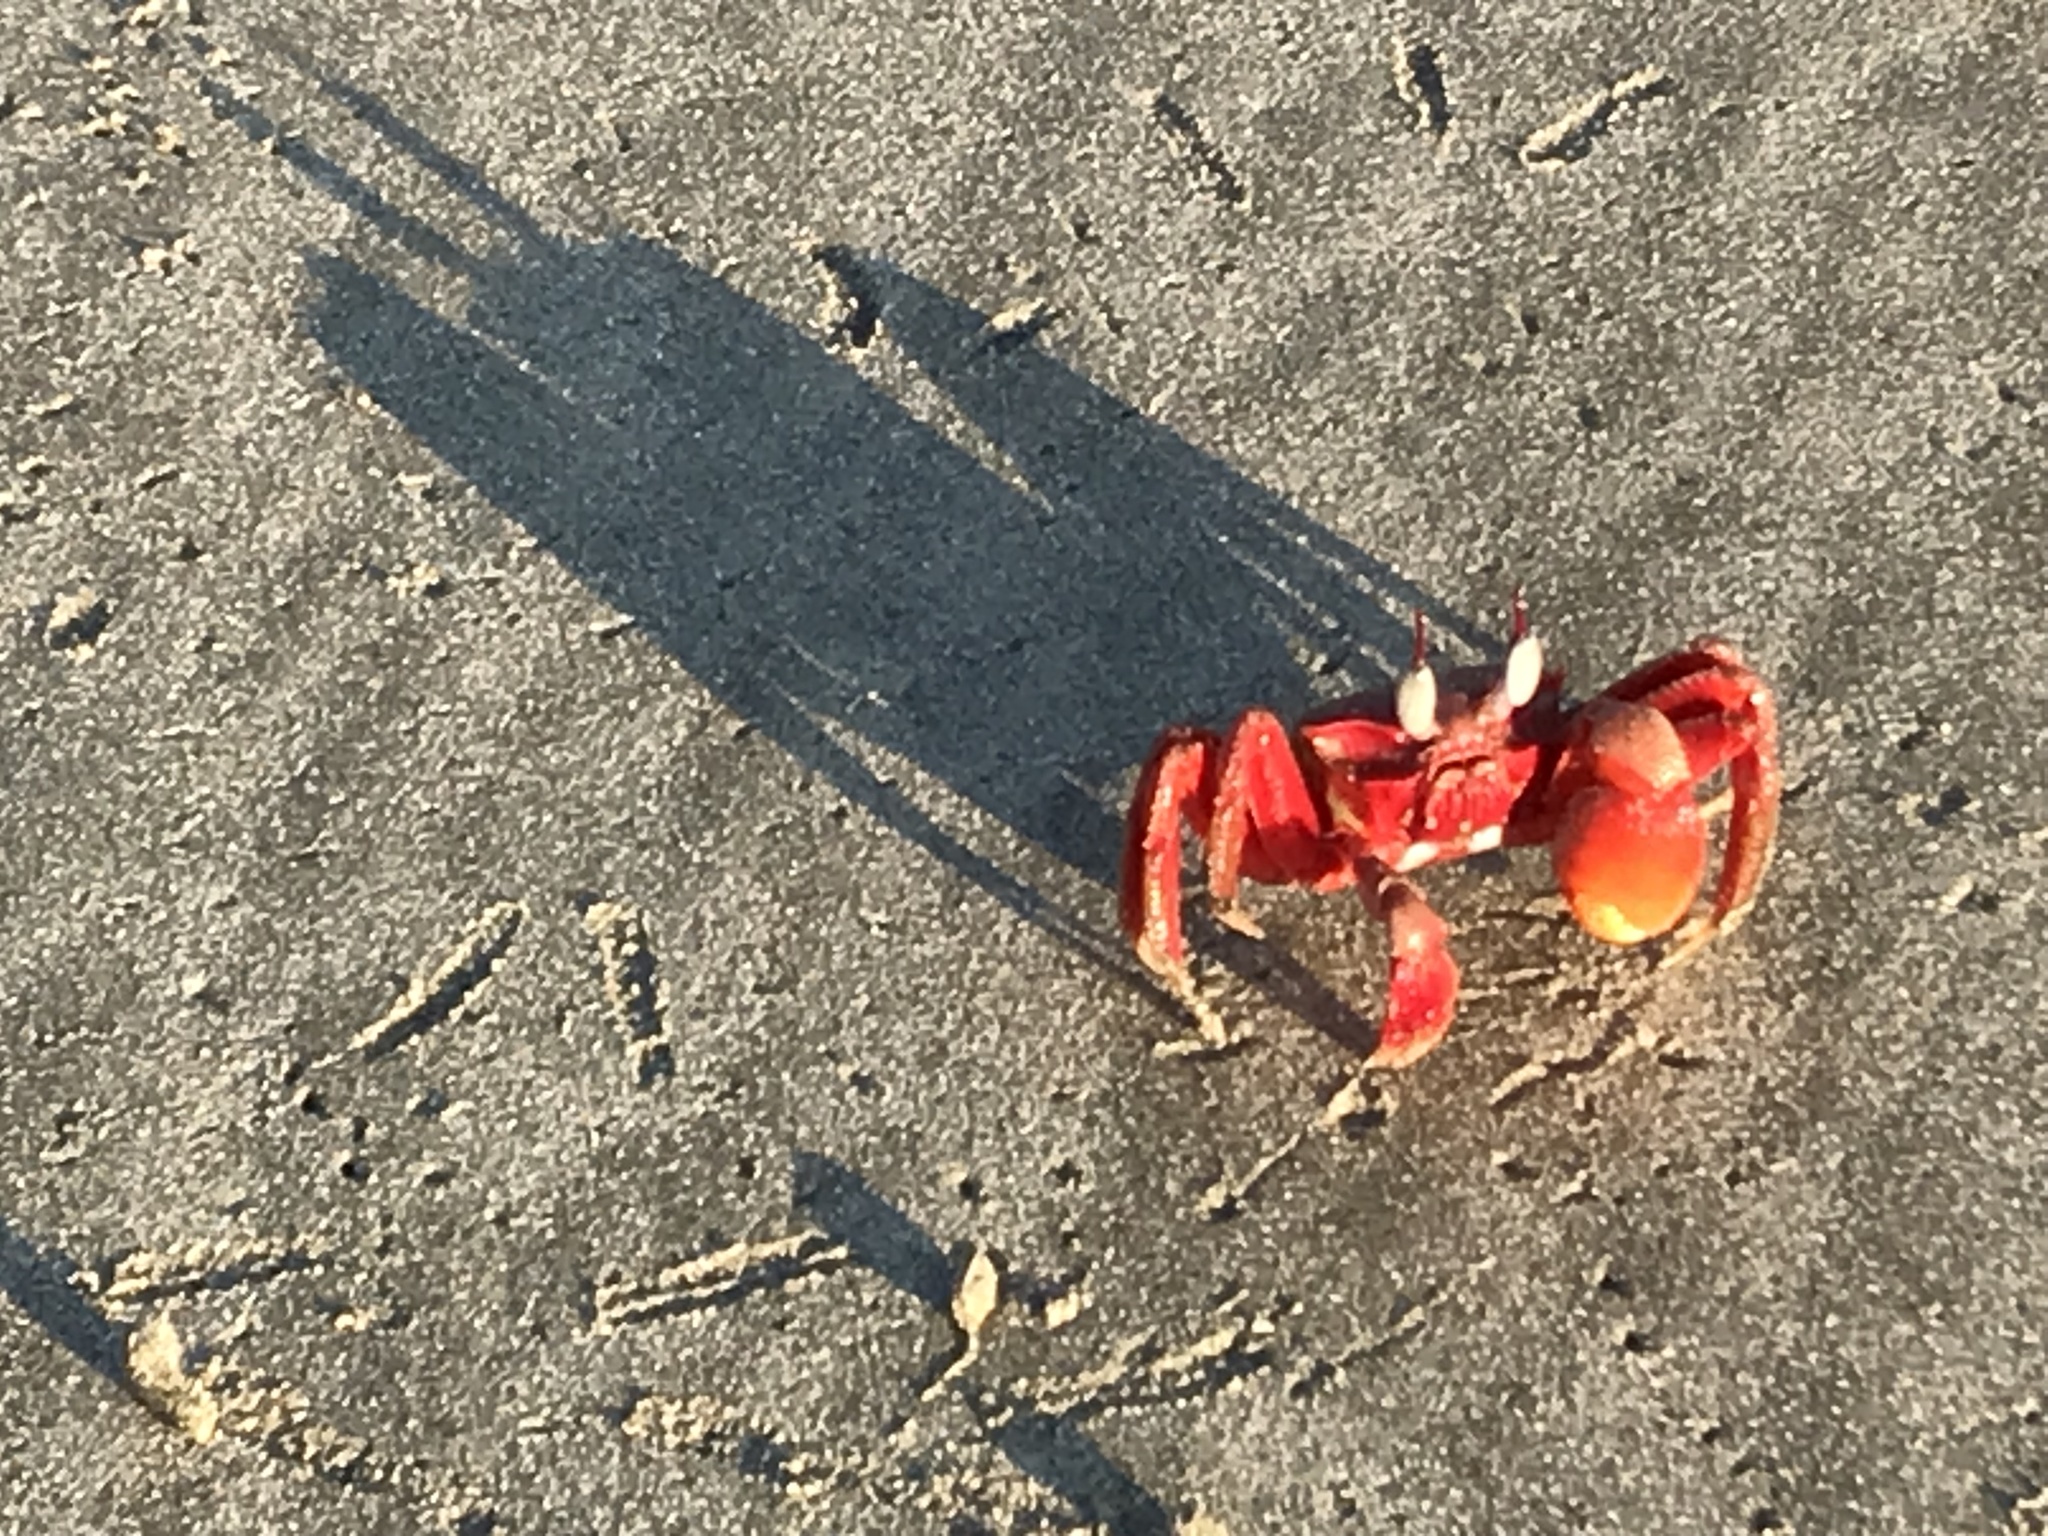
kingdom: Animalia
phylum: Arthropoda
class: Malacostraca
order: Decapoda
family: Ocypodidae
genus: Ocypode
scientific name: Ocypode macrocera
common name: Red ghost crab
